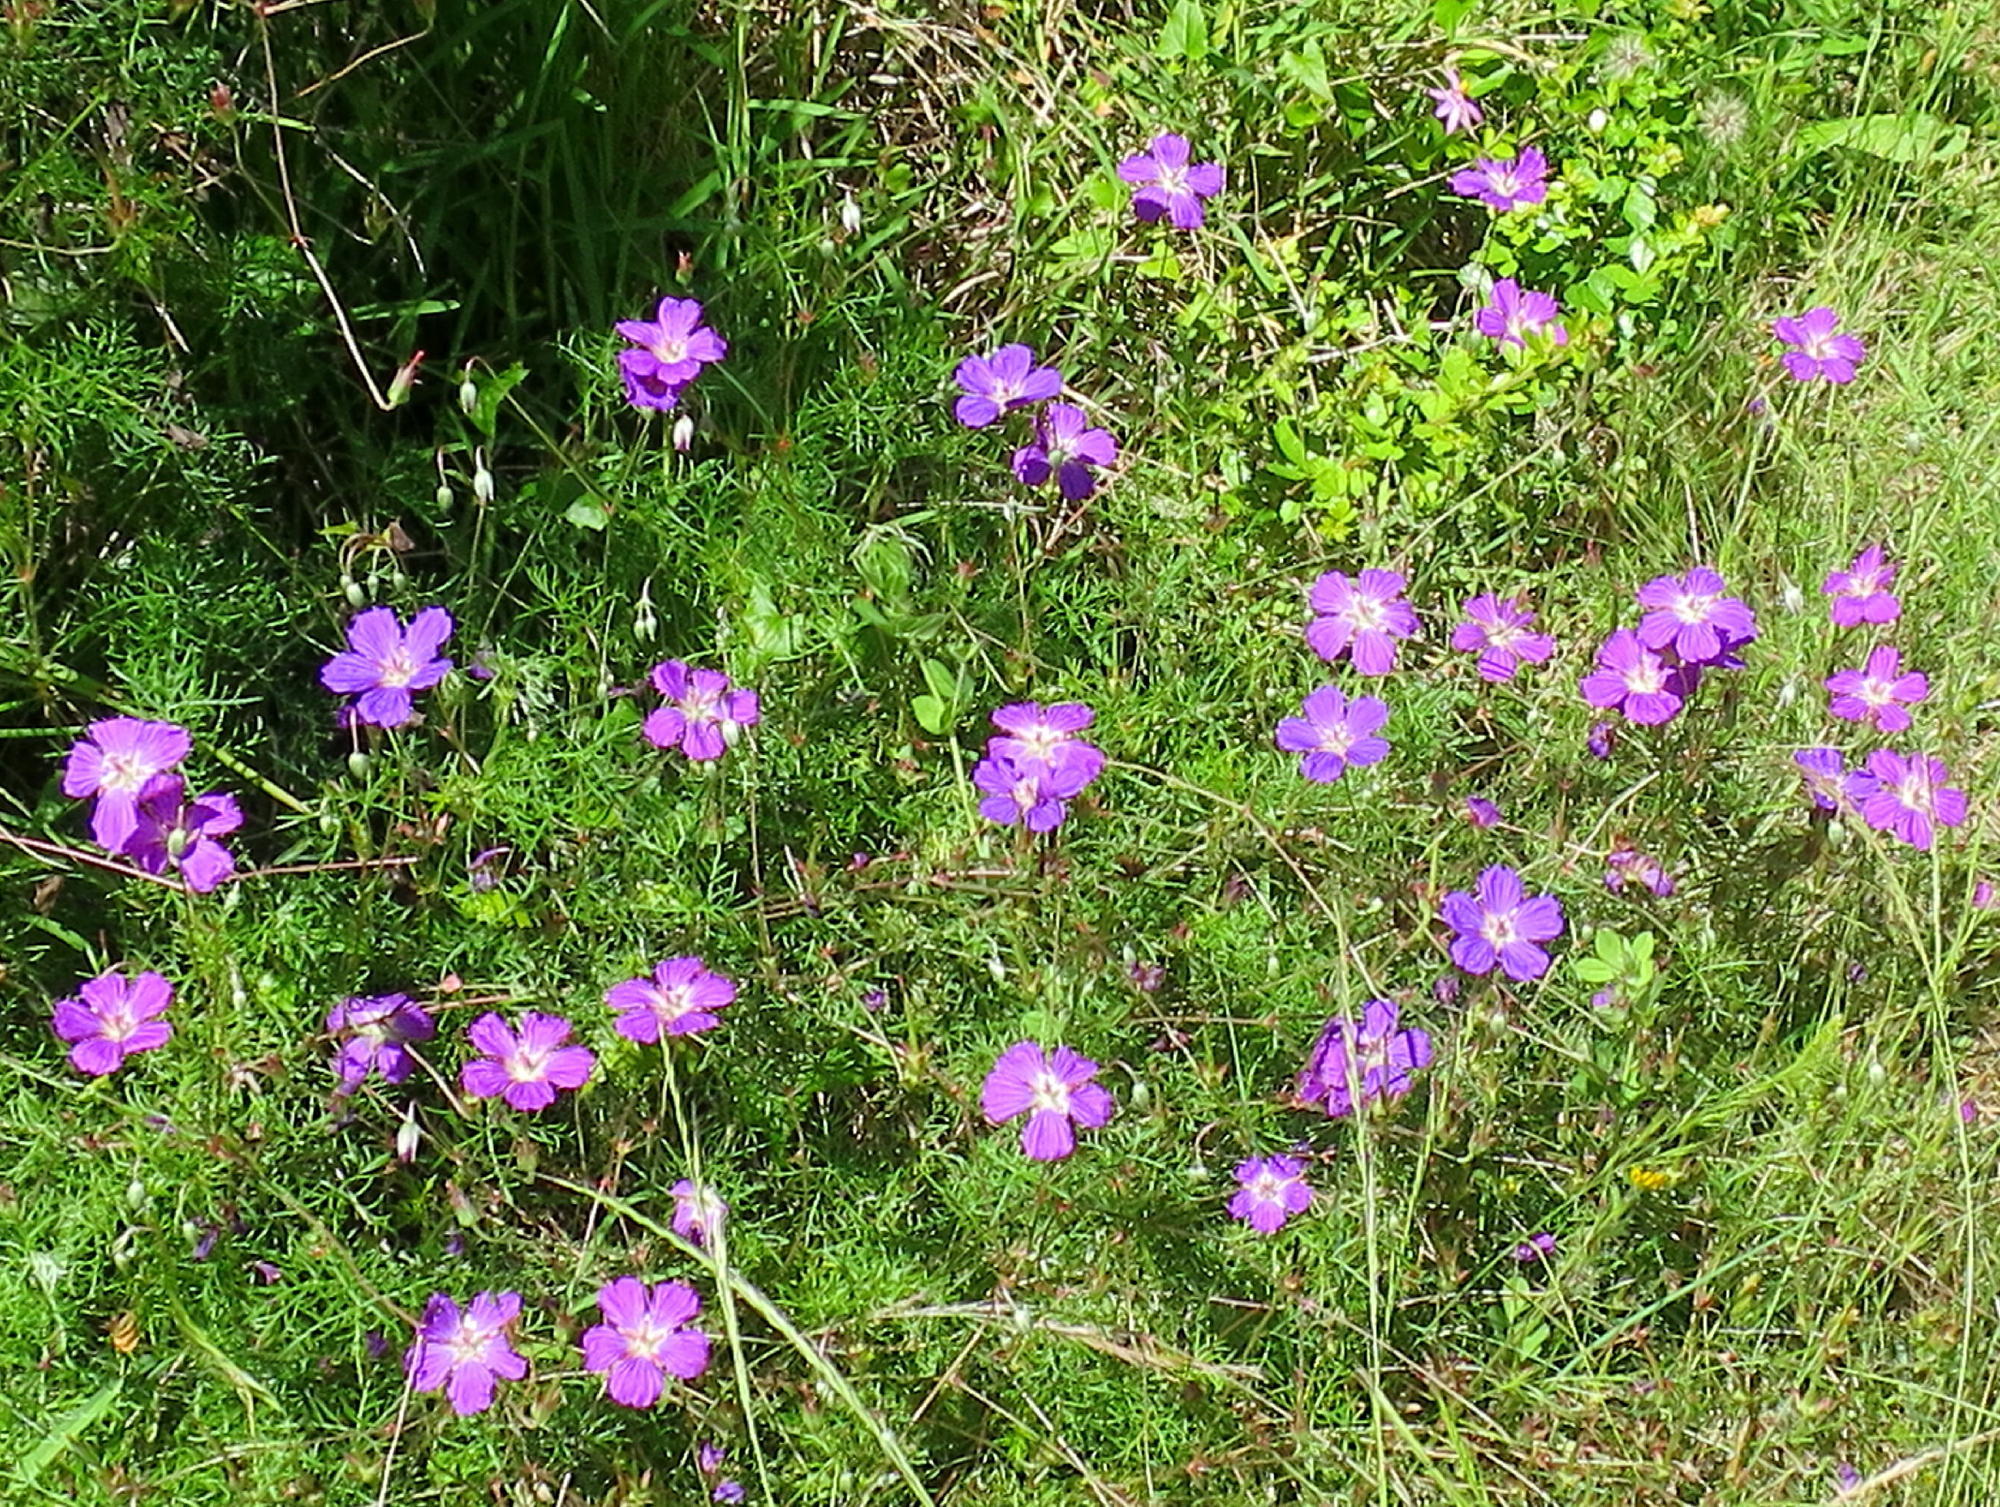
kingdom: Plantae
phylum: Tracheophyta
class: Magnoliopsida
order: Geraniales
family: Geraniaceae
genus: Geranium
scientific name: Geranium incanum
